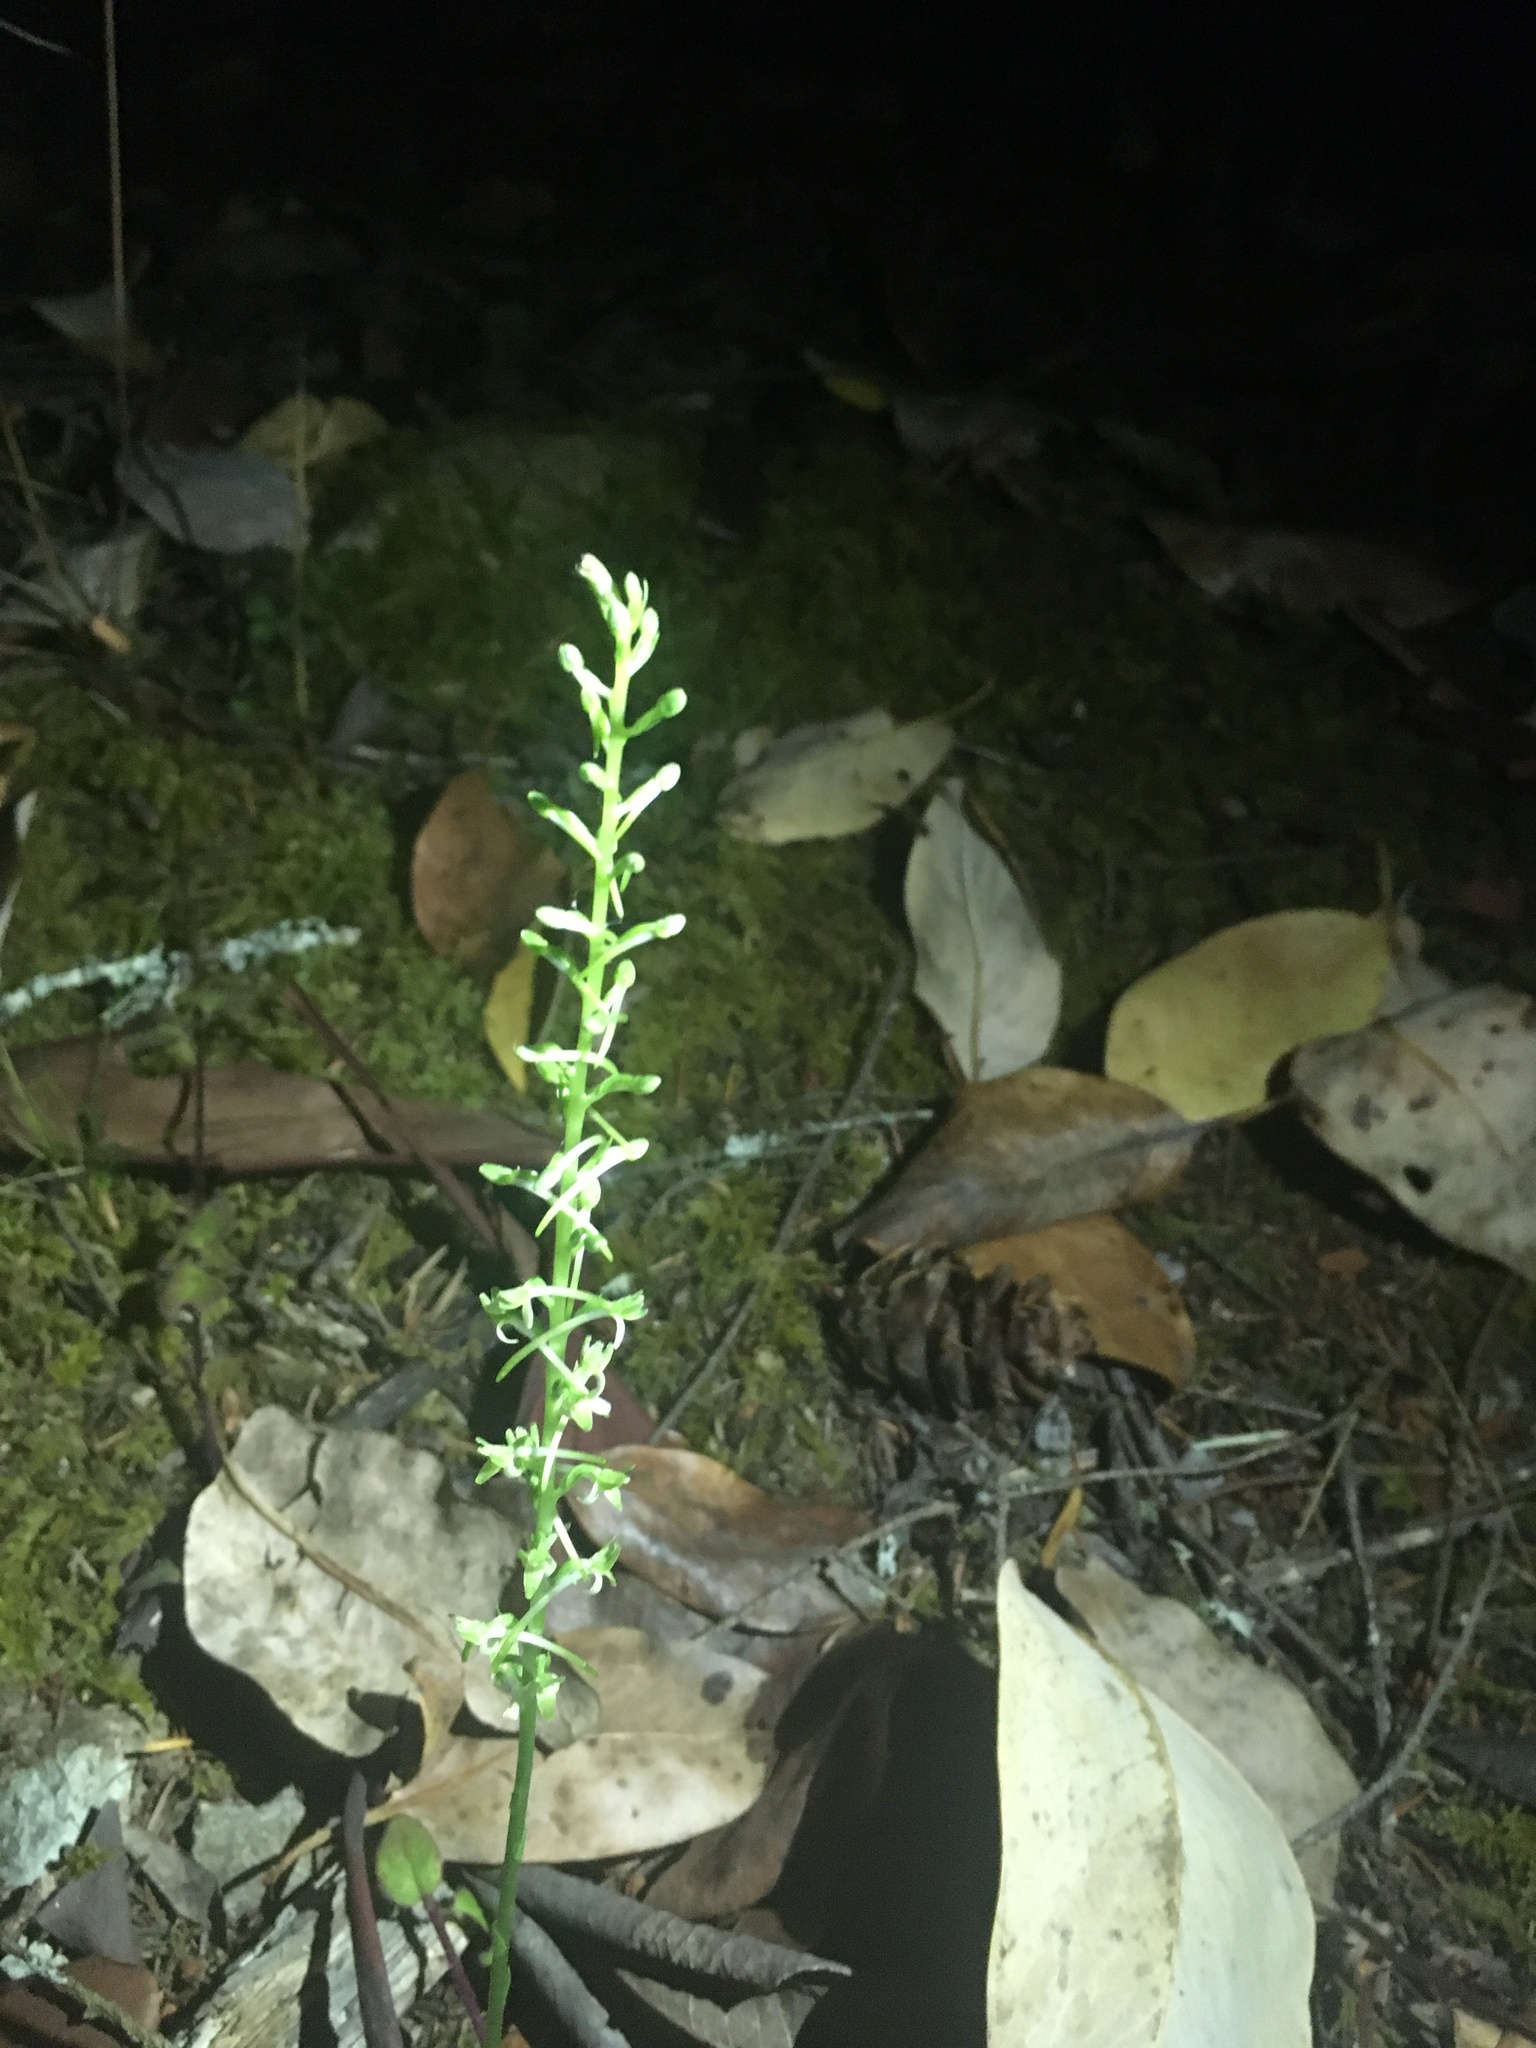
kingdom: Plantae
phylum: Tracheophyta
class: Liliopsida
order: Asparagales
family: Orchidaceae
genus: Platanthera
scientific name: Platanthera elongata
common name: Dense-flowered rein orchid
